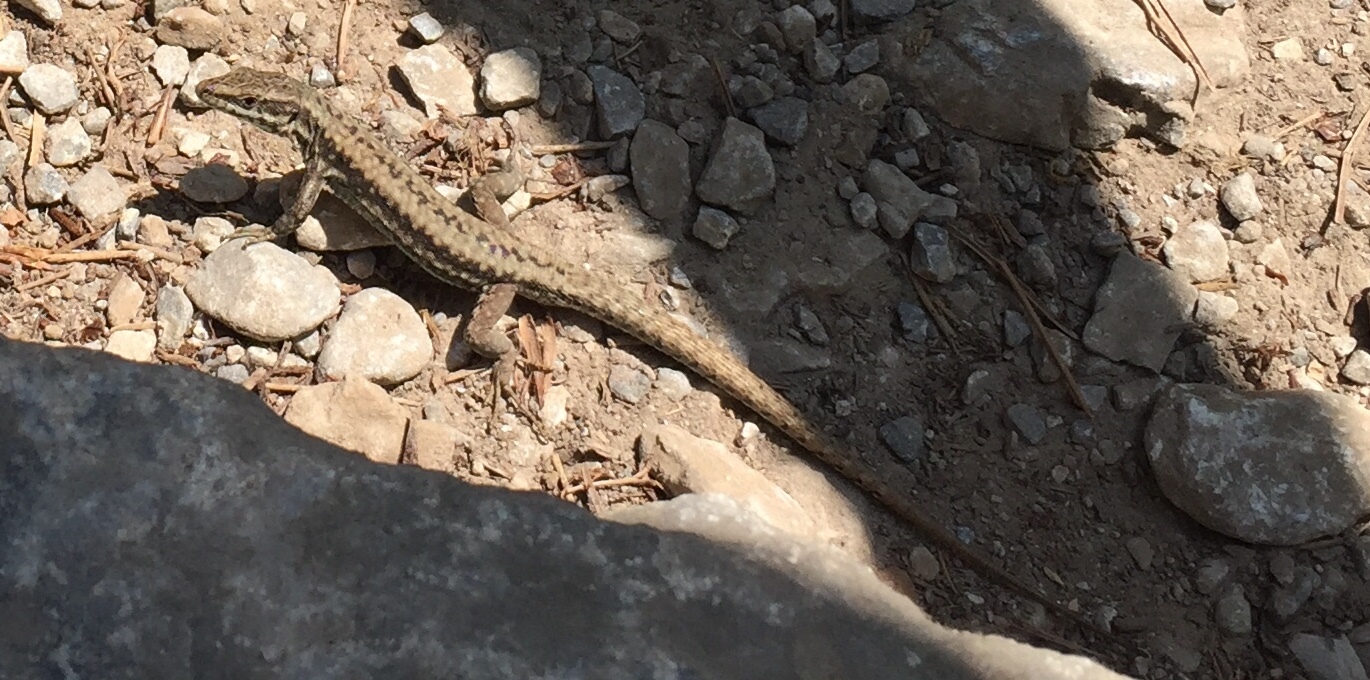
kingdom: Animalia
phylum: Chordata
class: Squamata
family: Lacertidae
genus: Podarcis
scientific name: Podarcis muralis
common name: Common wall lizard
